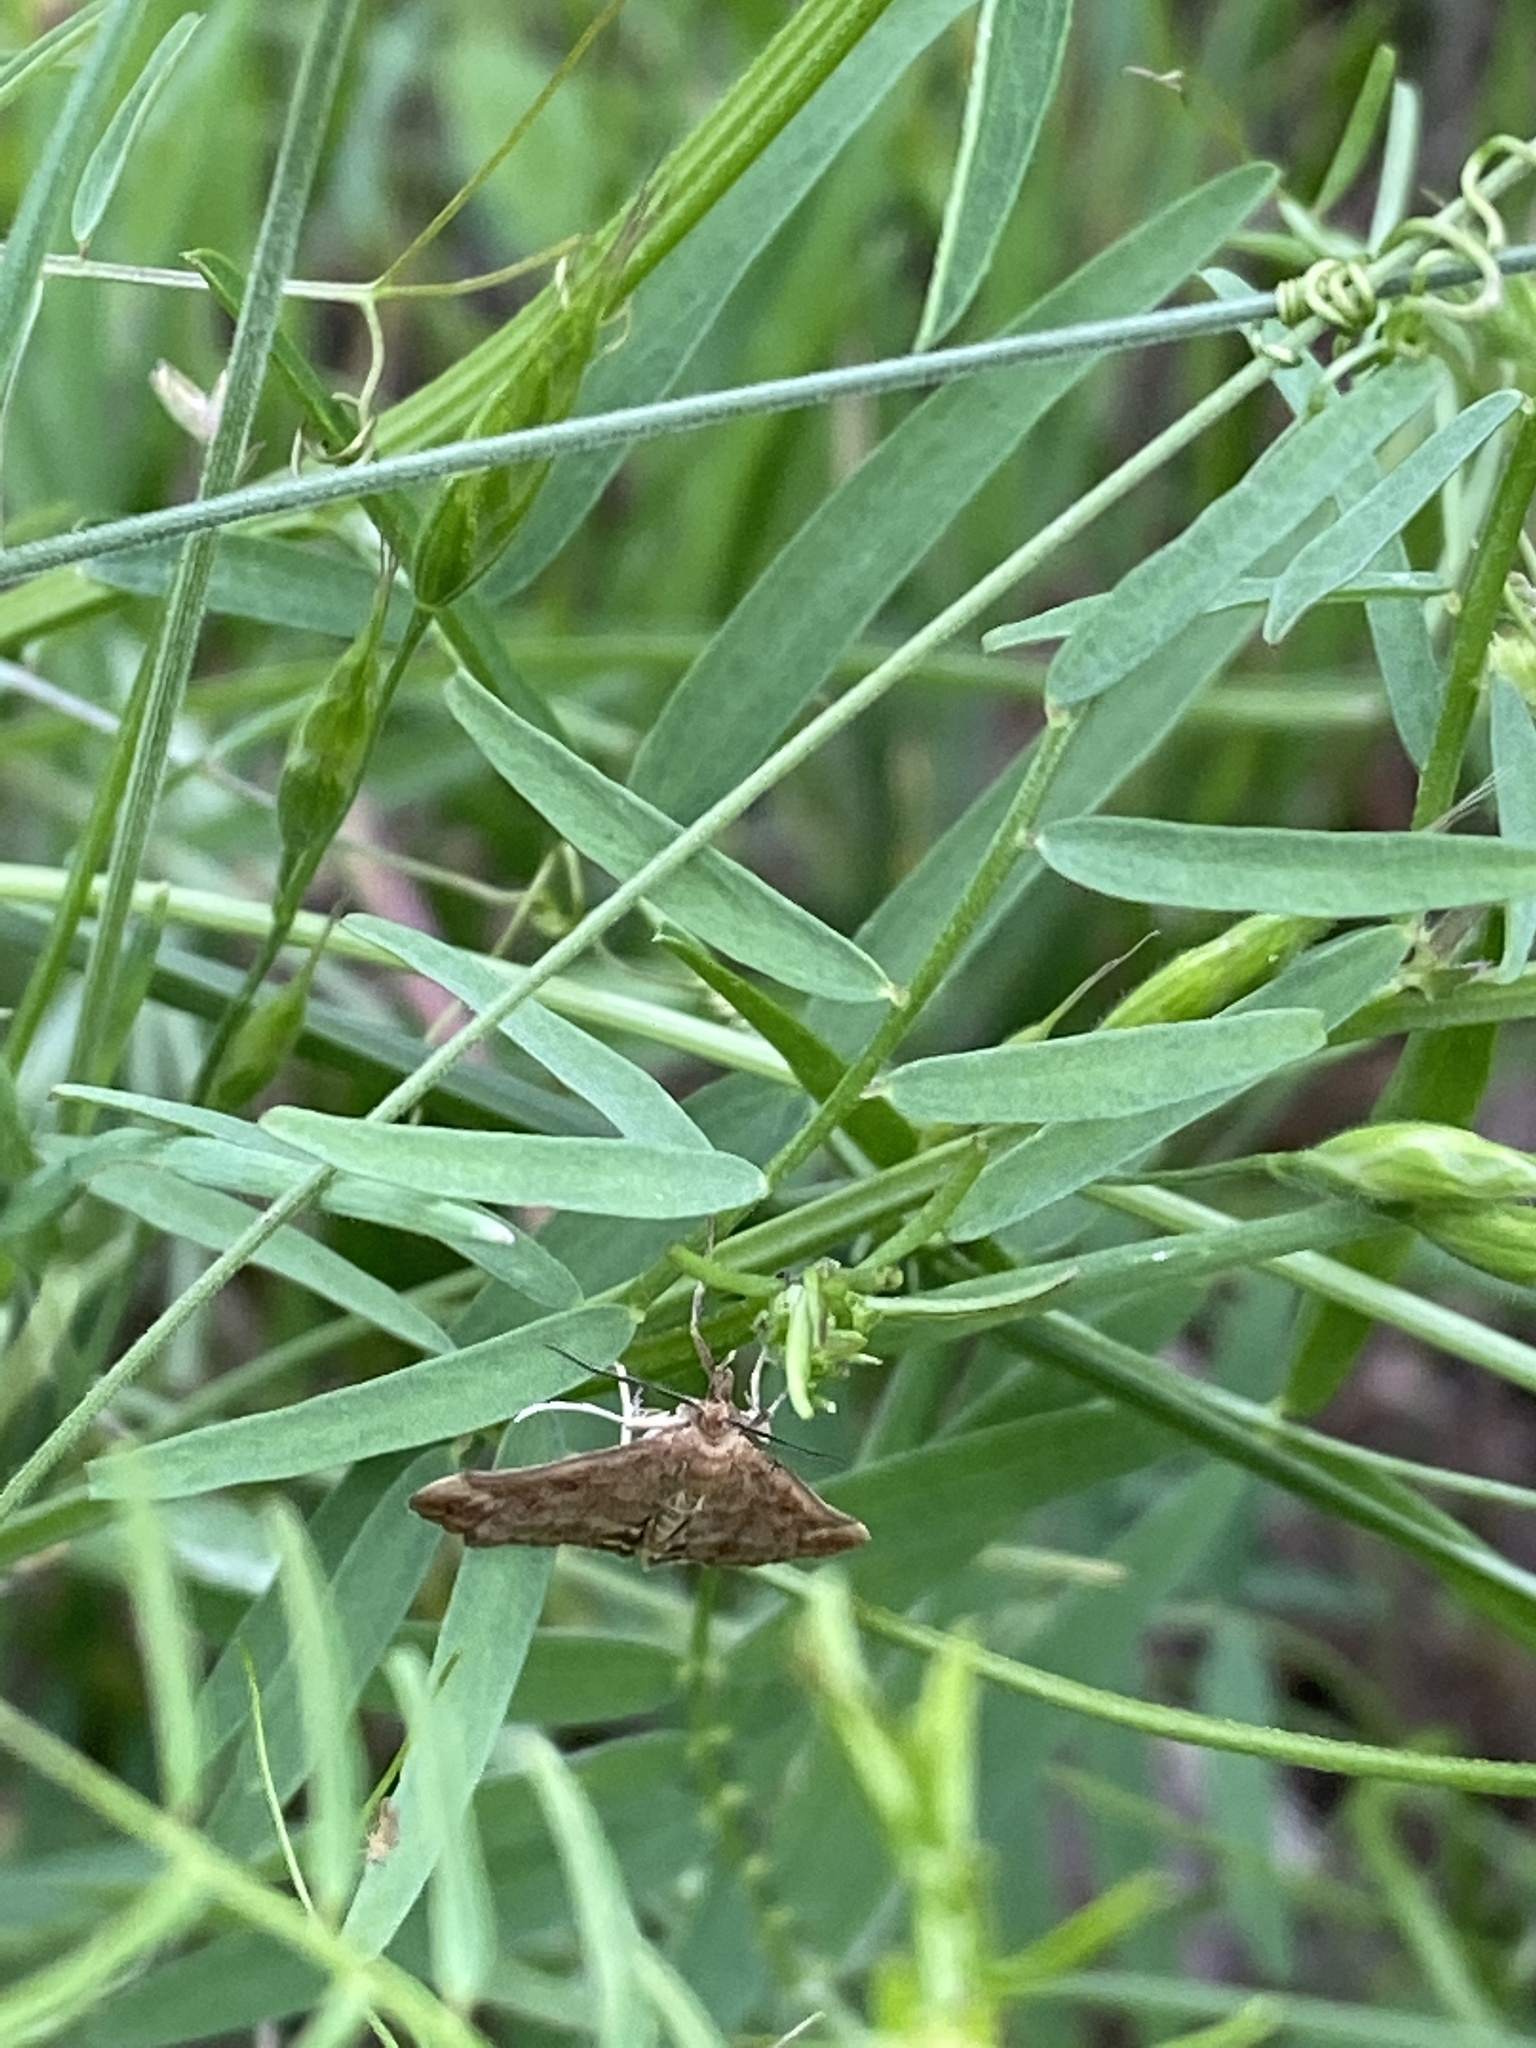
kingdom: Animalia
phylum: Arthropoda
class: Insecta
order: Lepidoptera
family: Crambidae
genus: Pyrausta
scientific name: Pyrausta despicata
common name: Straw-barred pearl
